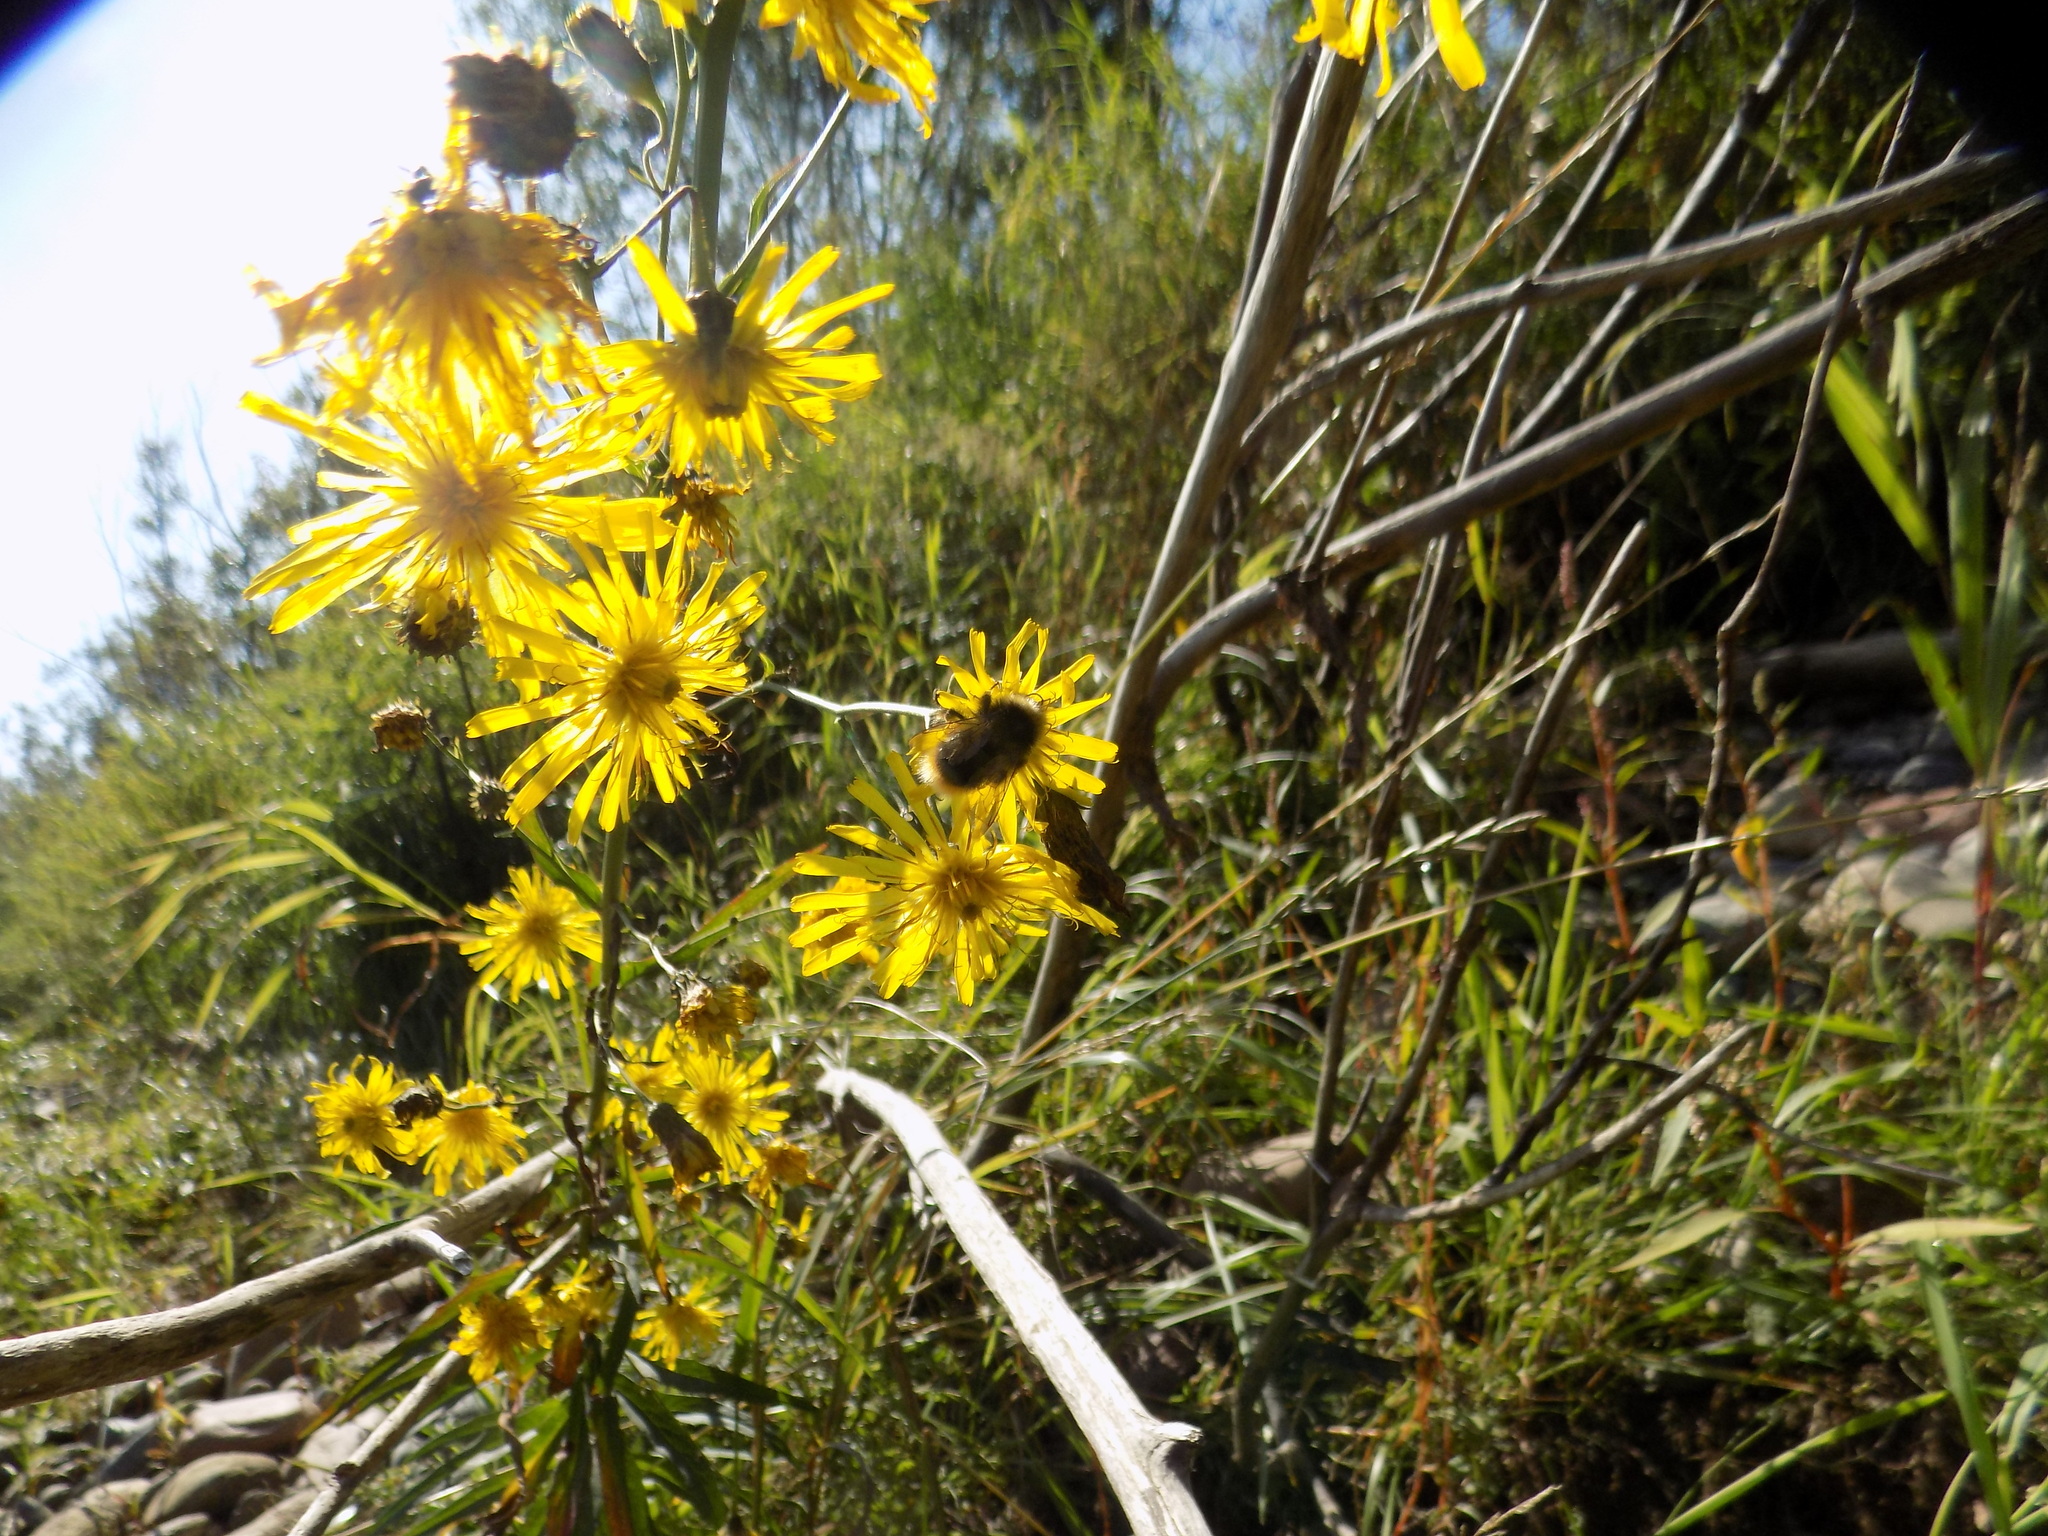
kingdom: Plantae
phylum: Tracheophyta
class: Magnoliopsida
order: Asterales
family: Asteraceae
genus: Hieracium
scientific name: Hieracium umbellatum
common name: Northern hawkweed
